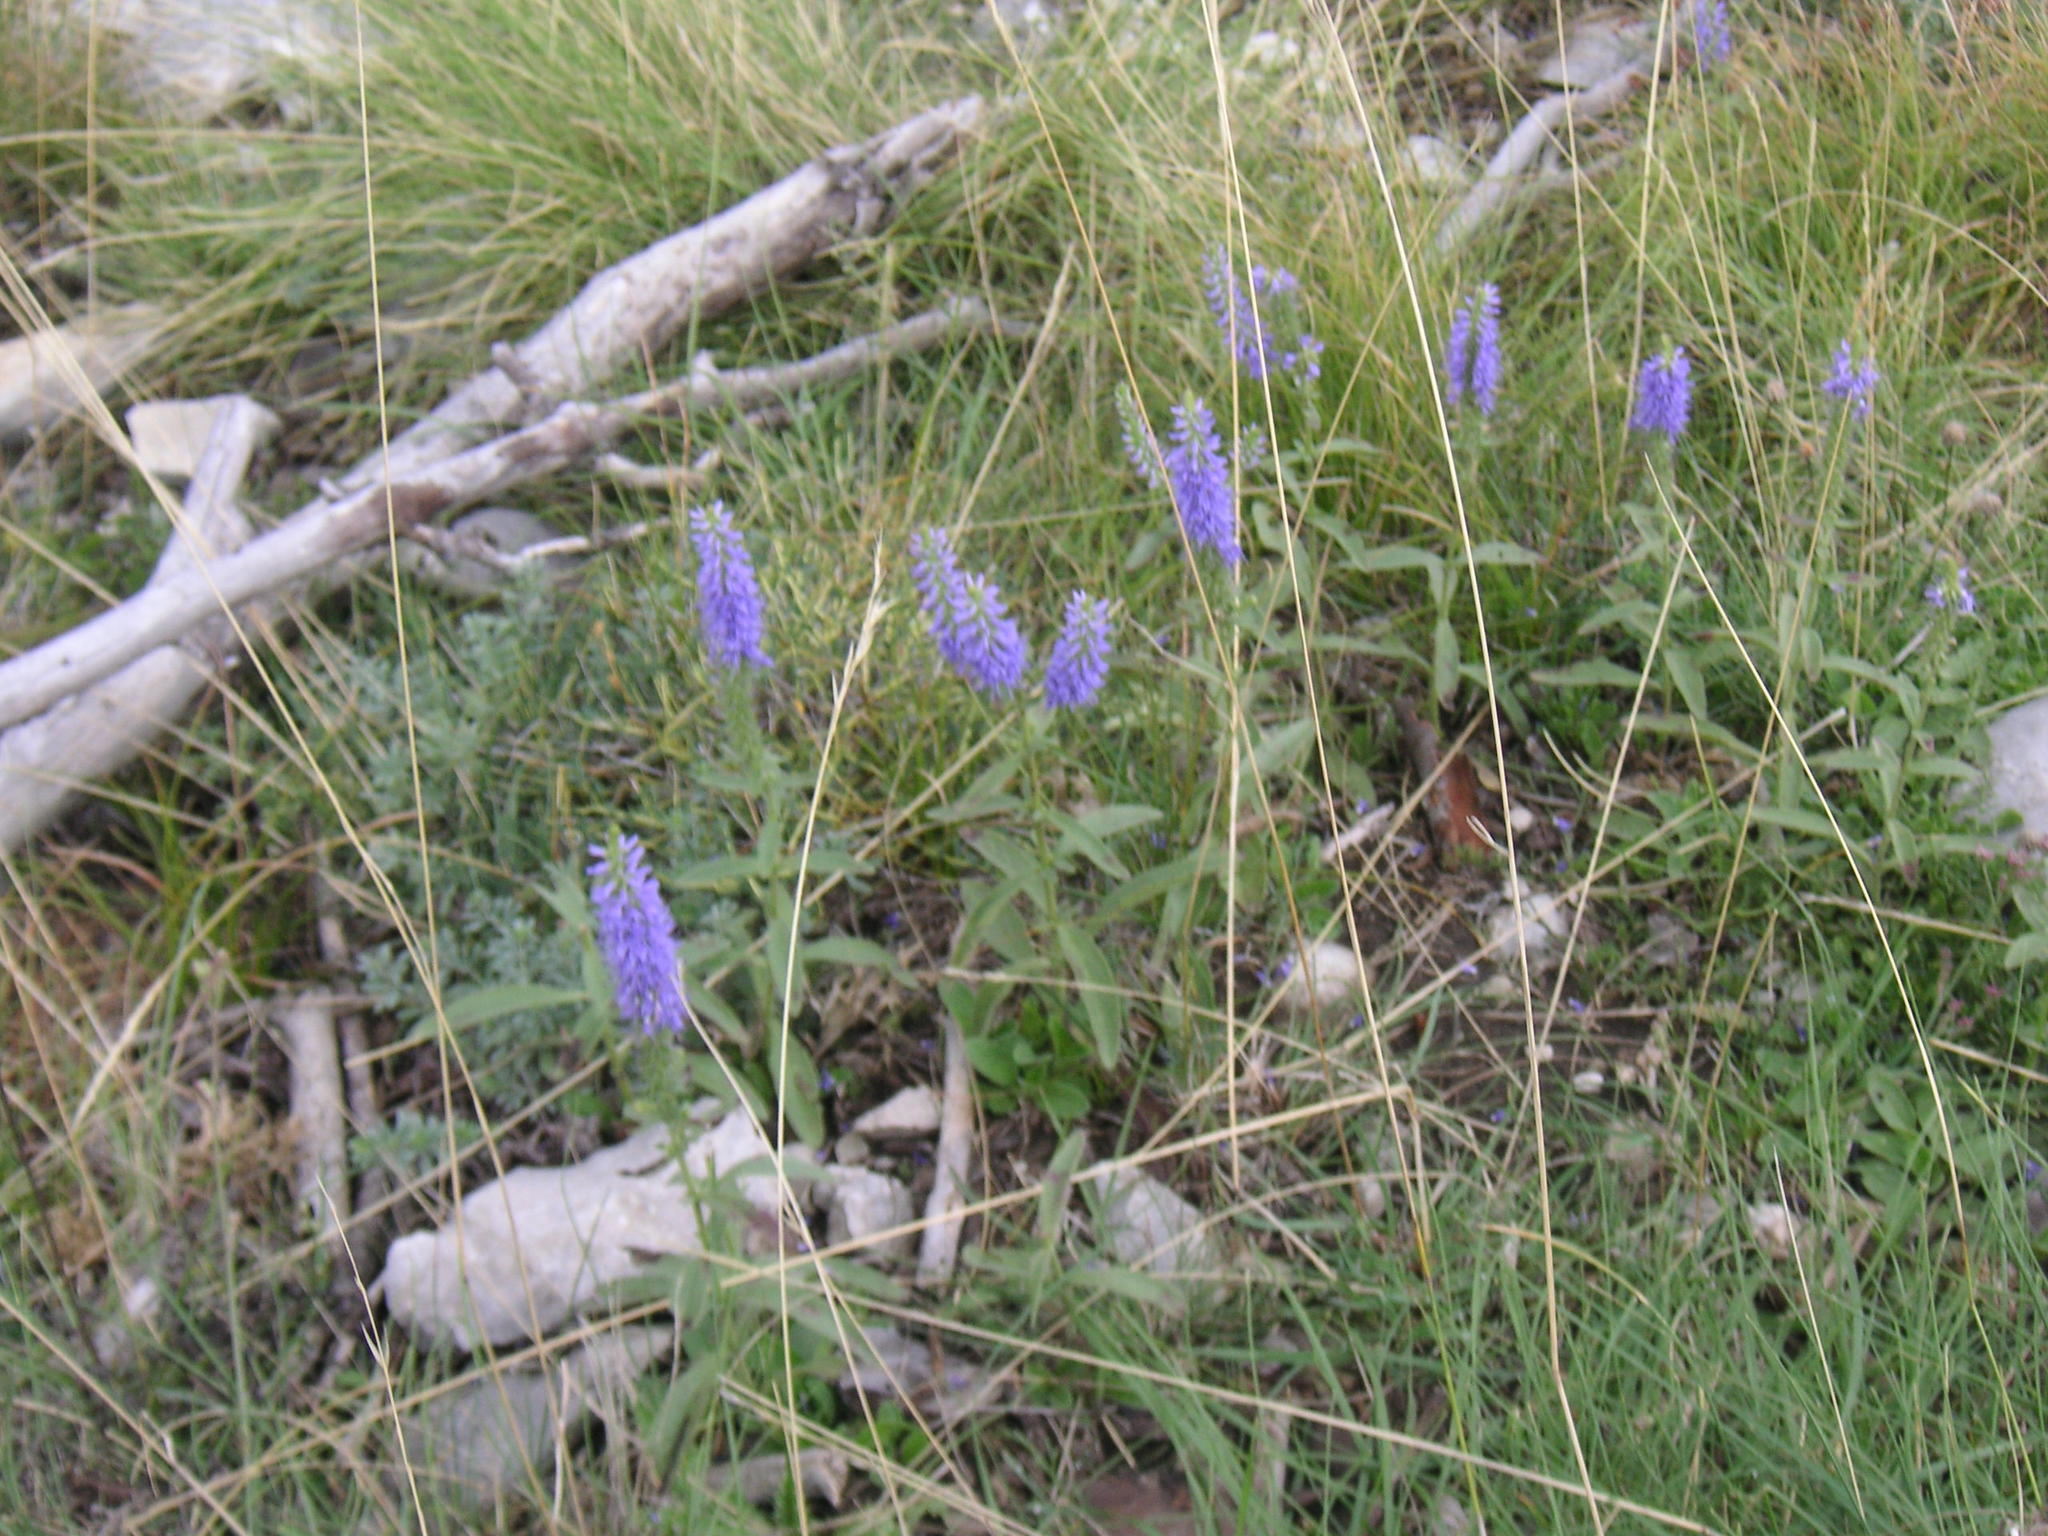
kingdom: Plantae
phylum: Tracheophyta
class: Magnoliopsida
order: Lamiales
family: Plantaginaceae
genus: Veronica
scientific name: Veronica barrelieri
